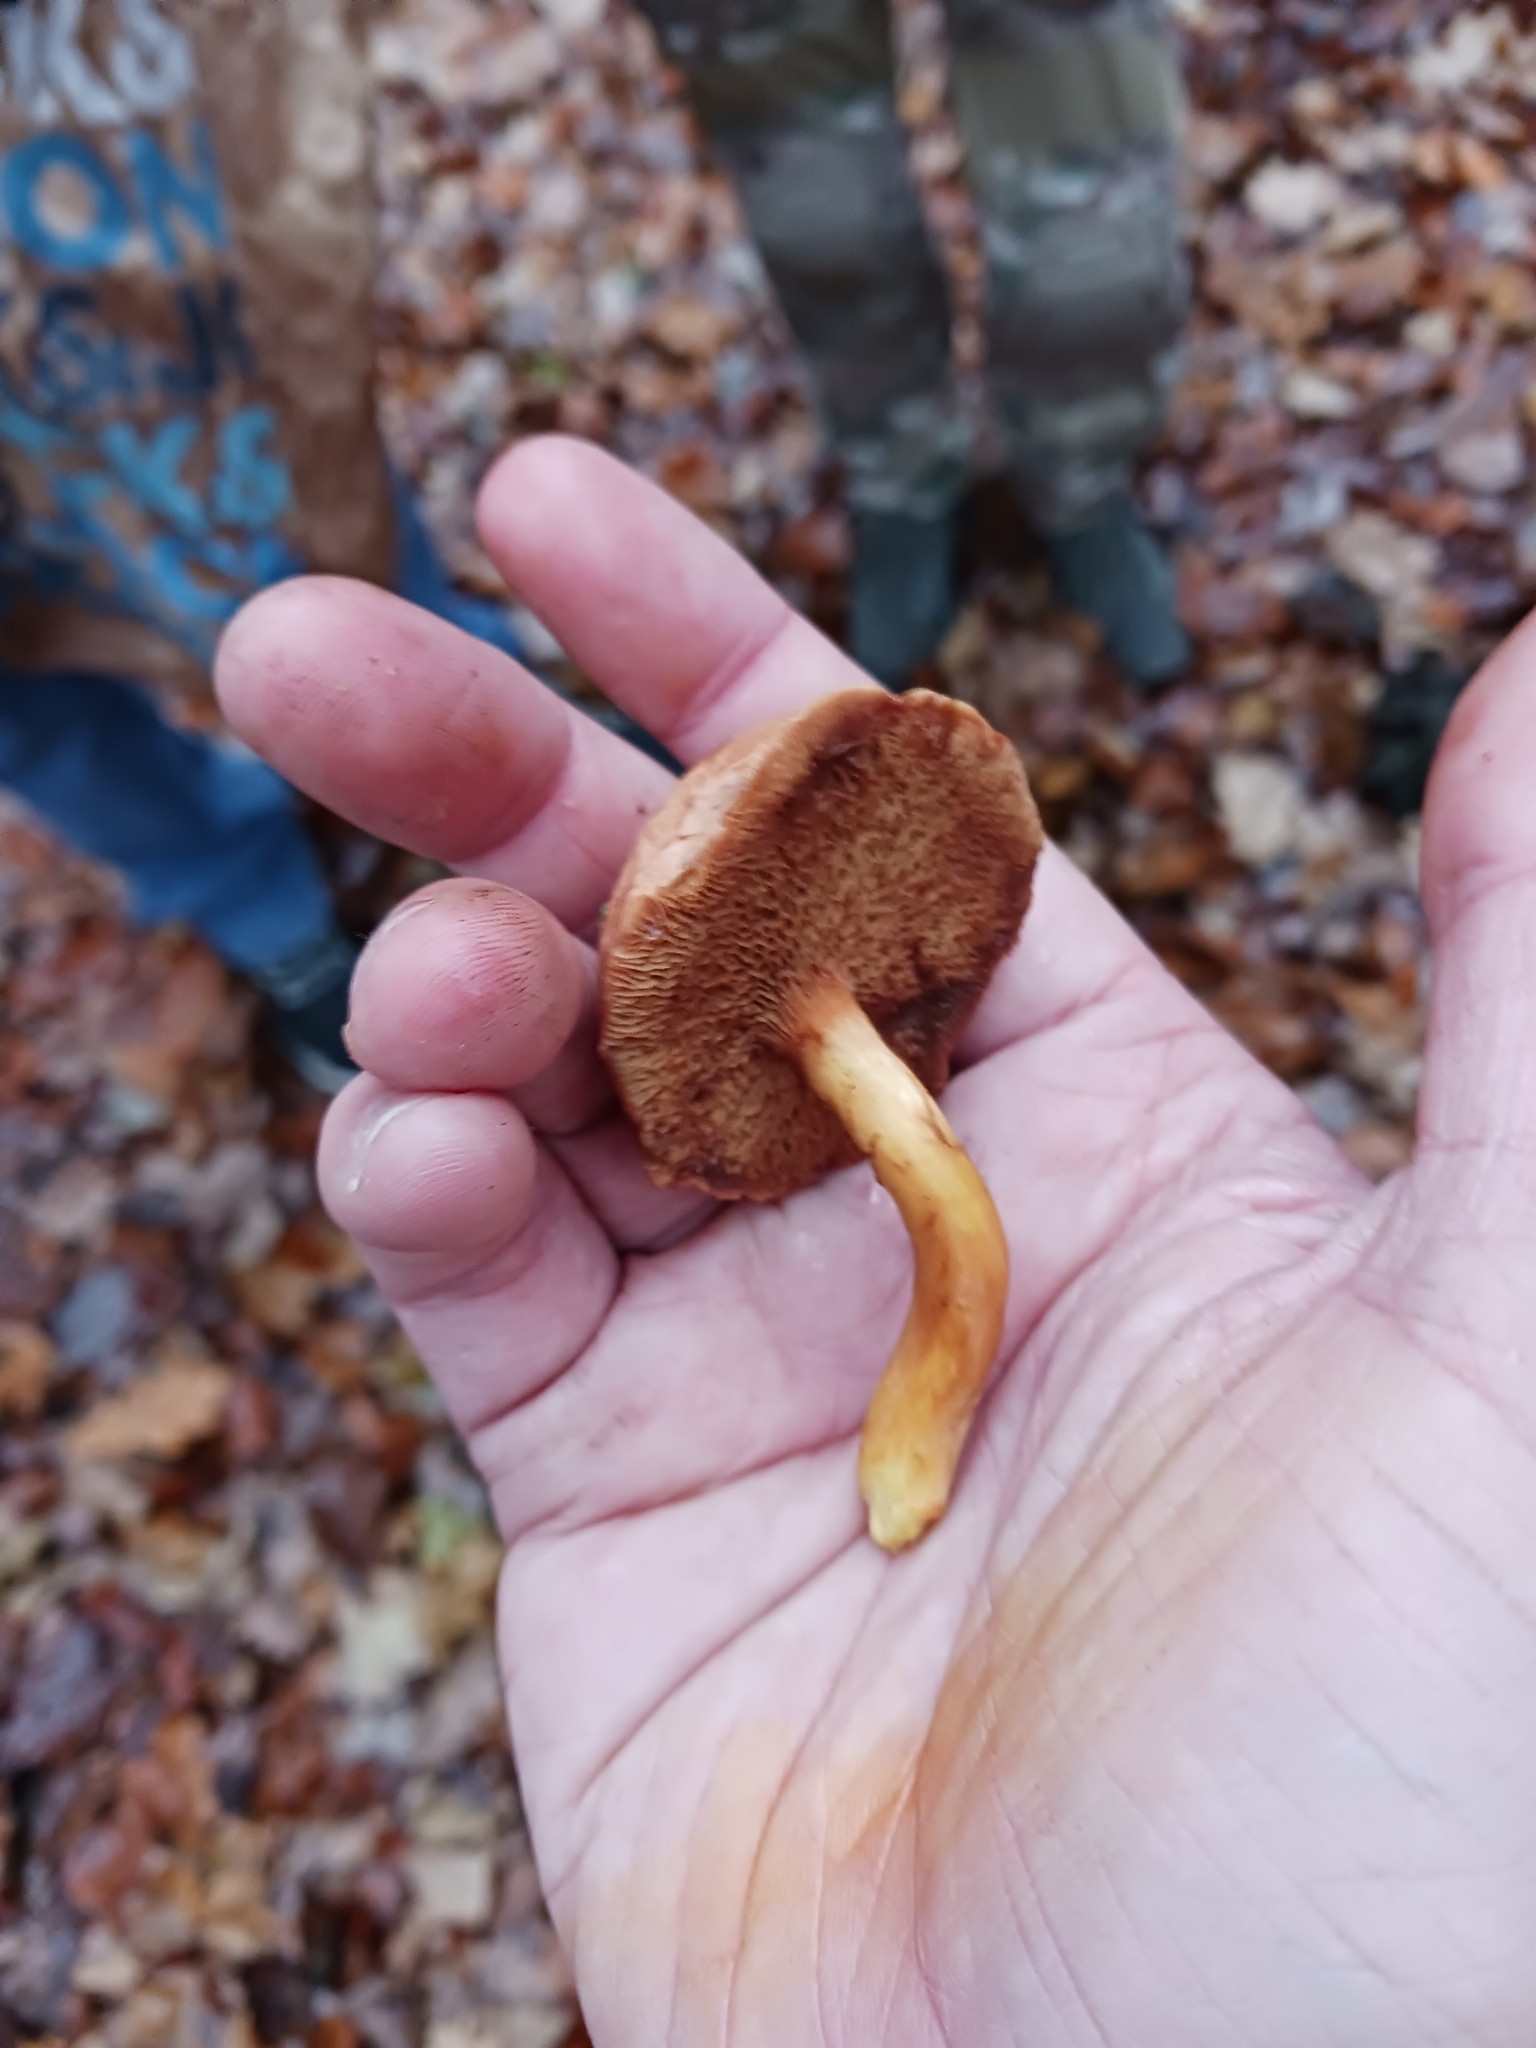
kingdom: Fungi
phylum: Basidiomycota
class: Agaricomycetes
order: Boletales
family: Boletaceae
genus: Chalciporus
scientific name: Chalciporus piperatus
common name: Peppery bolete
